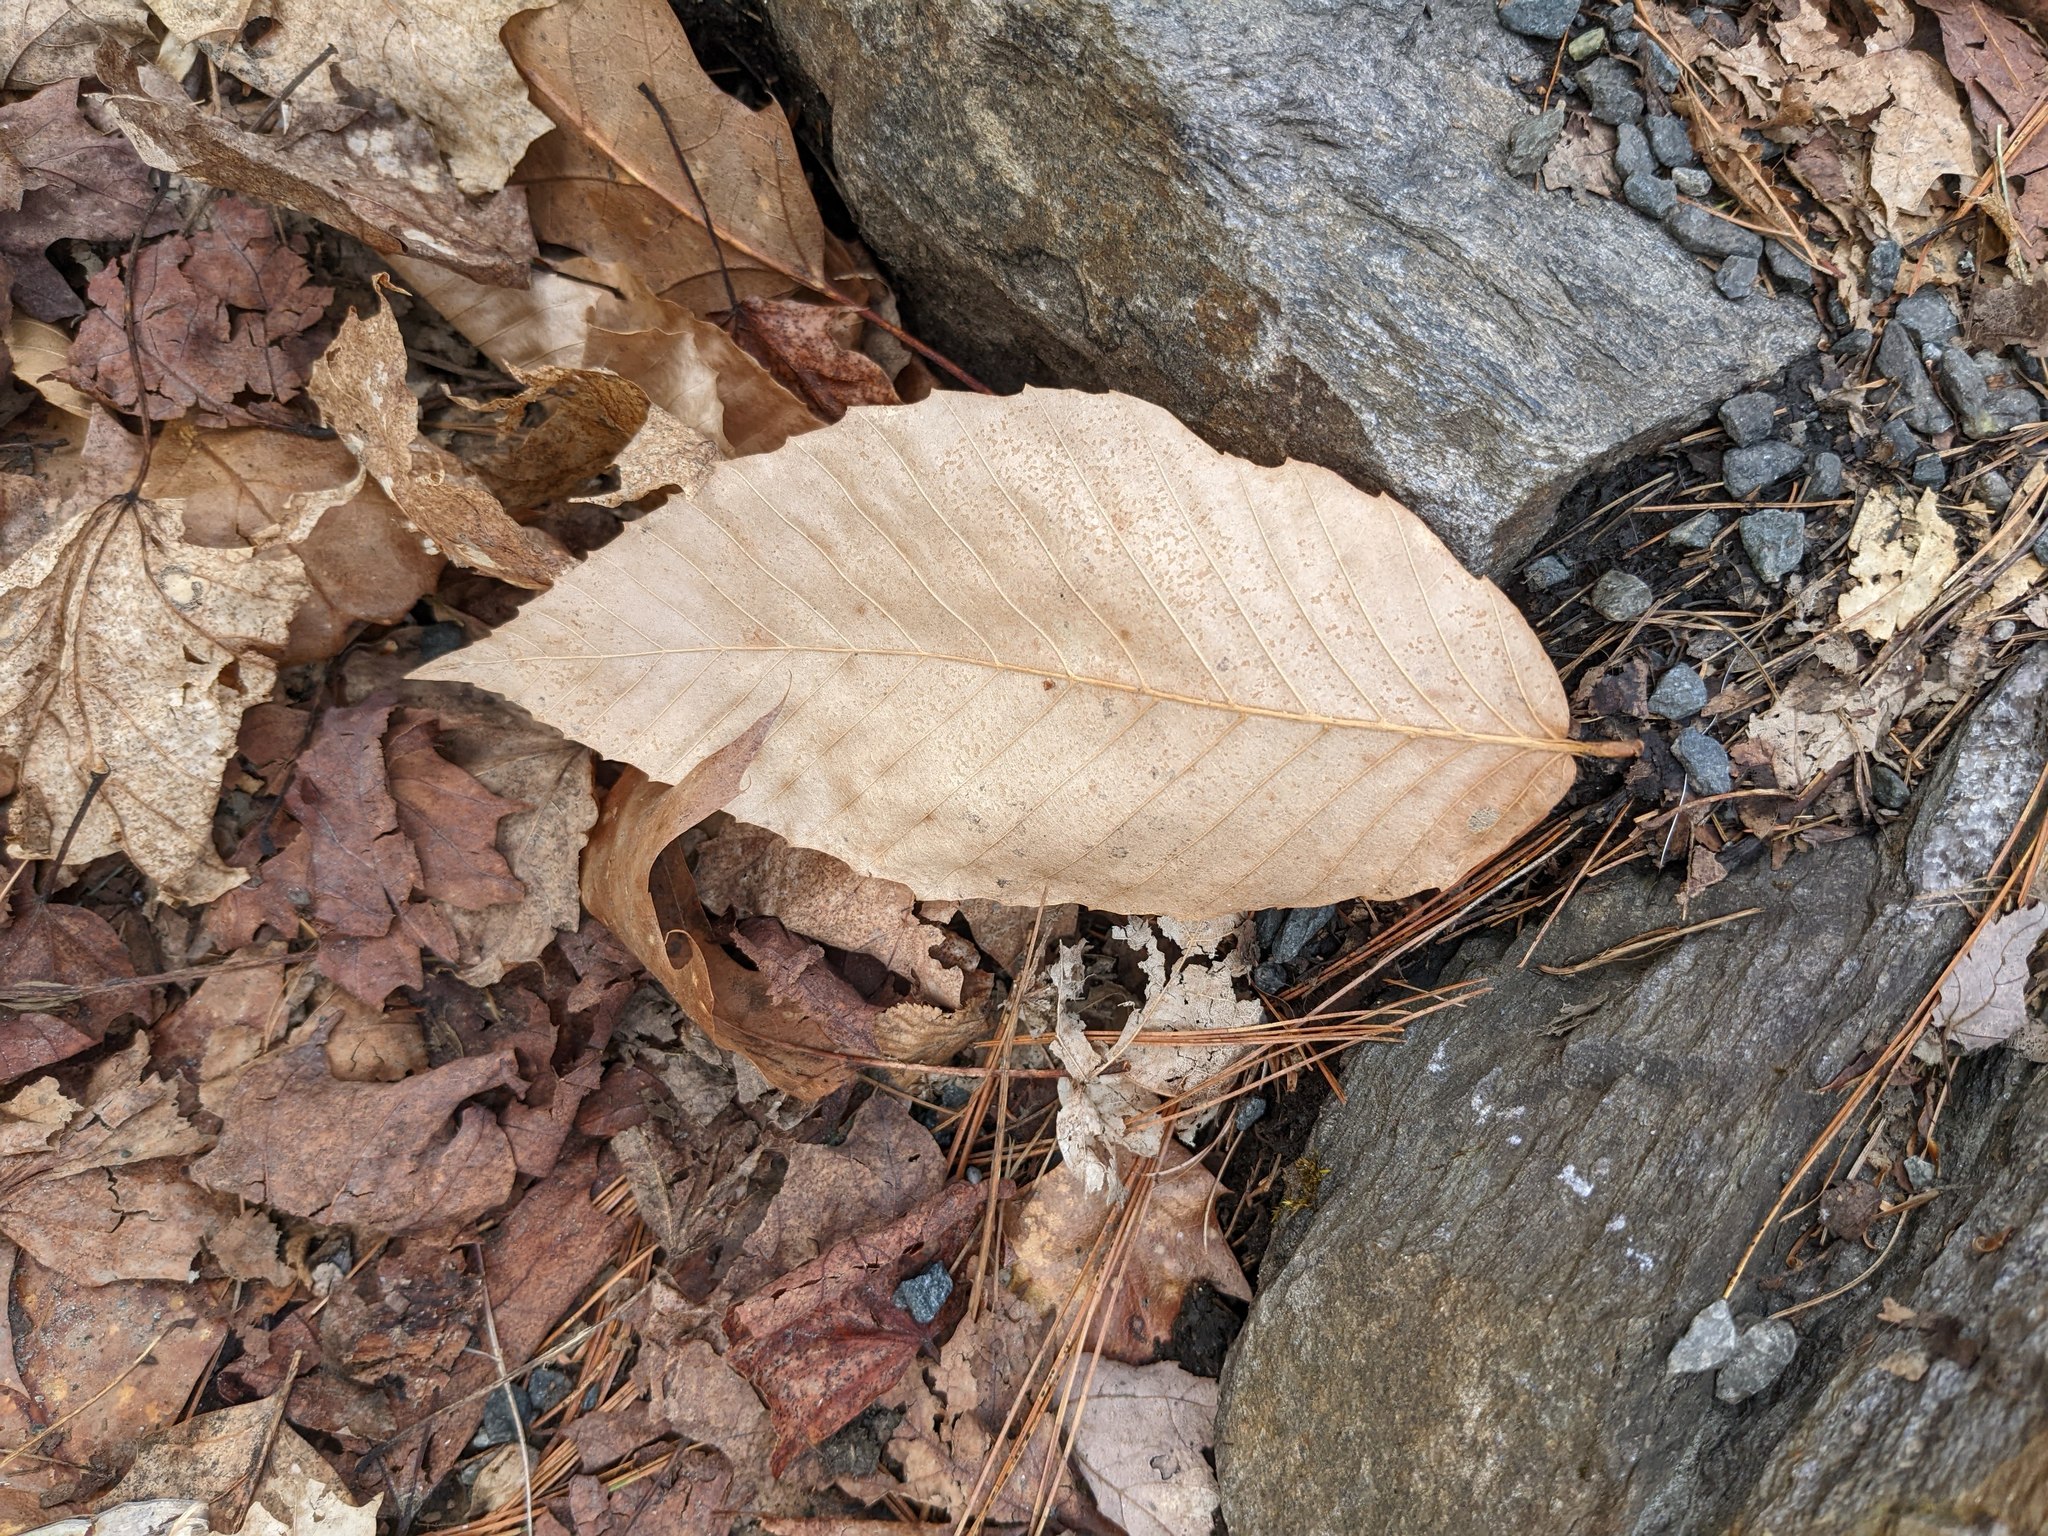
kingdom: Plantae
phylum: Tracheophyta
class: Magnoliopsida
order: Fagales
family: Fagaceae
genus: Fagus
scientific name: Fagus grandifolia
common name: American beech
